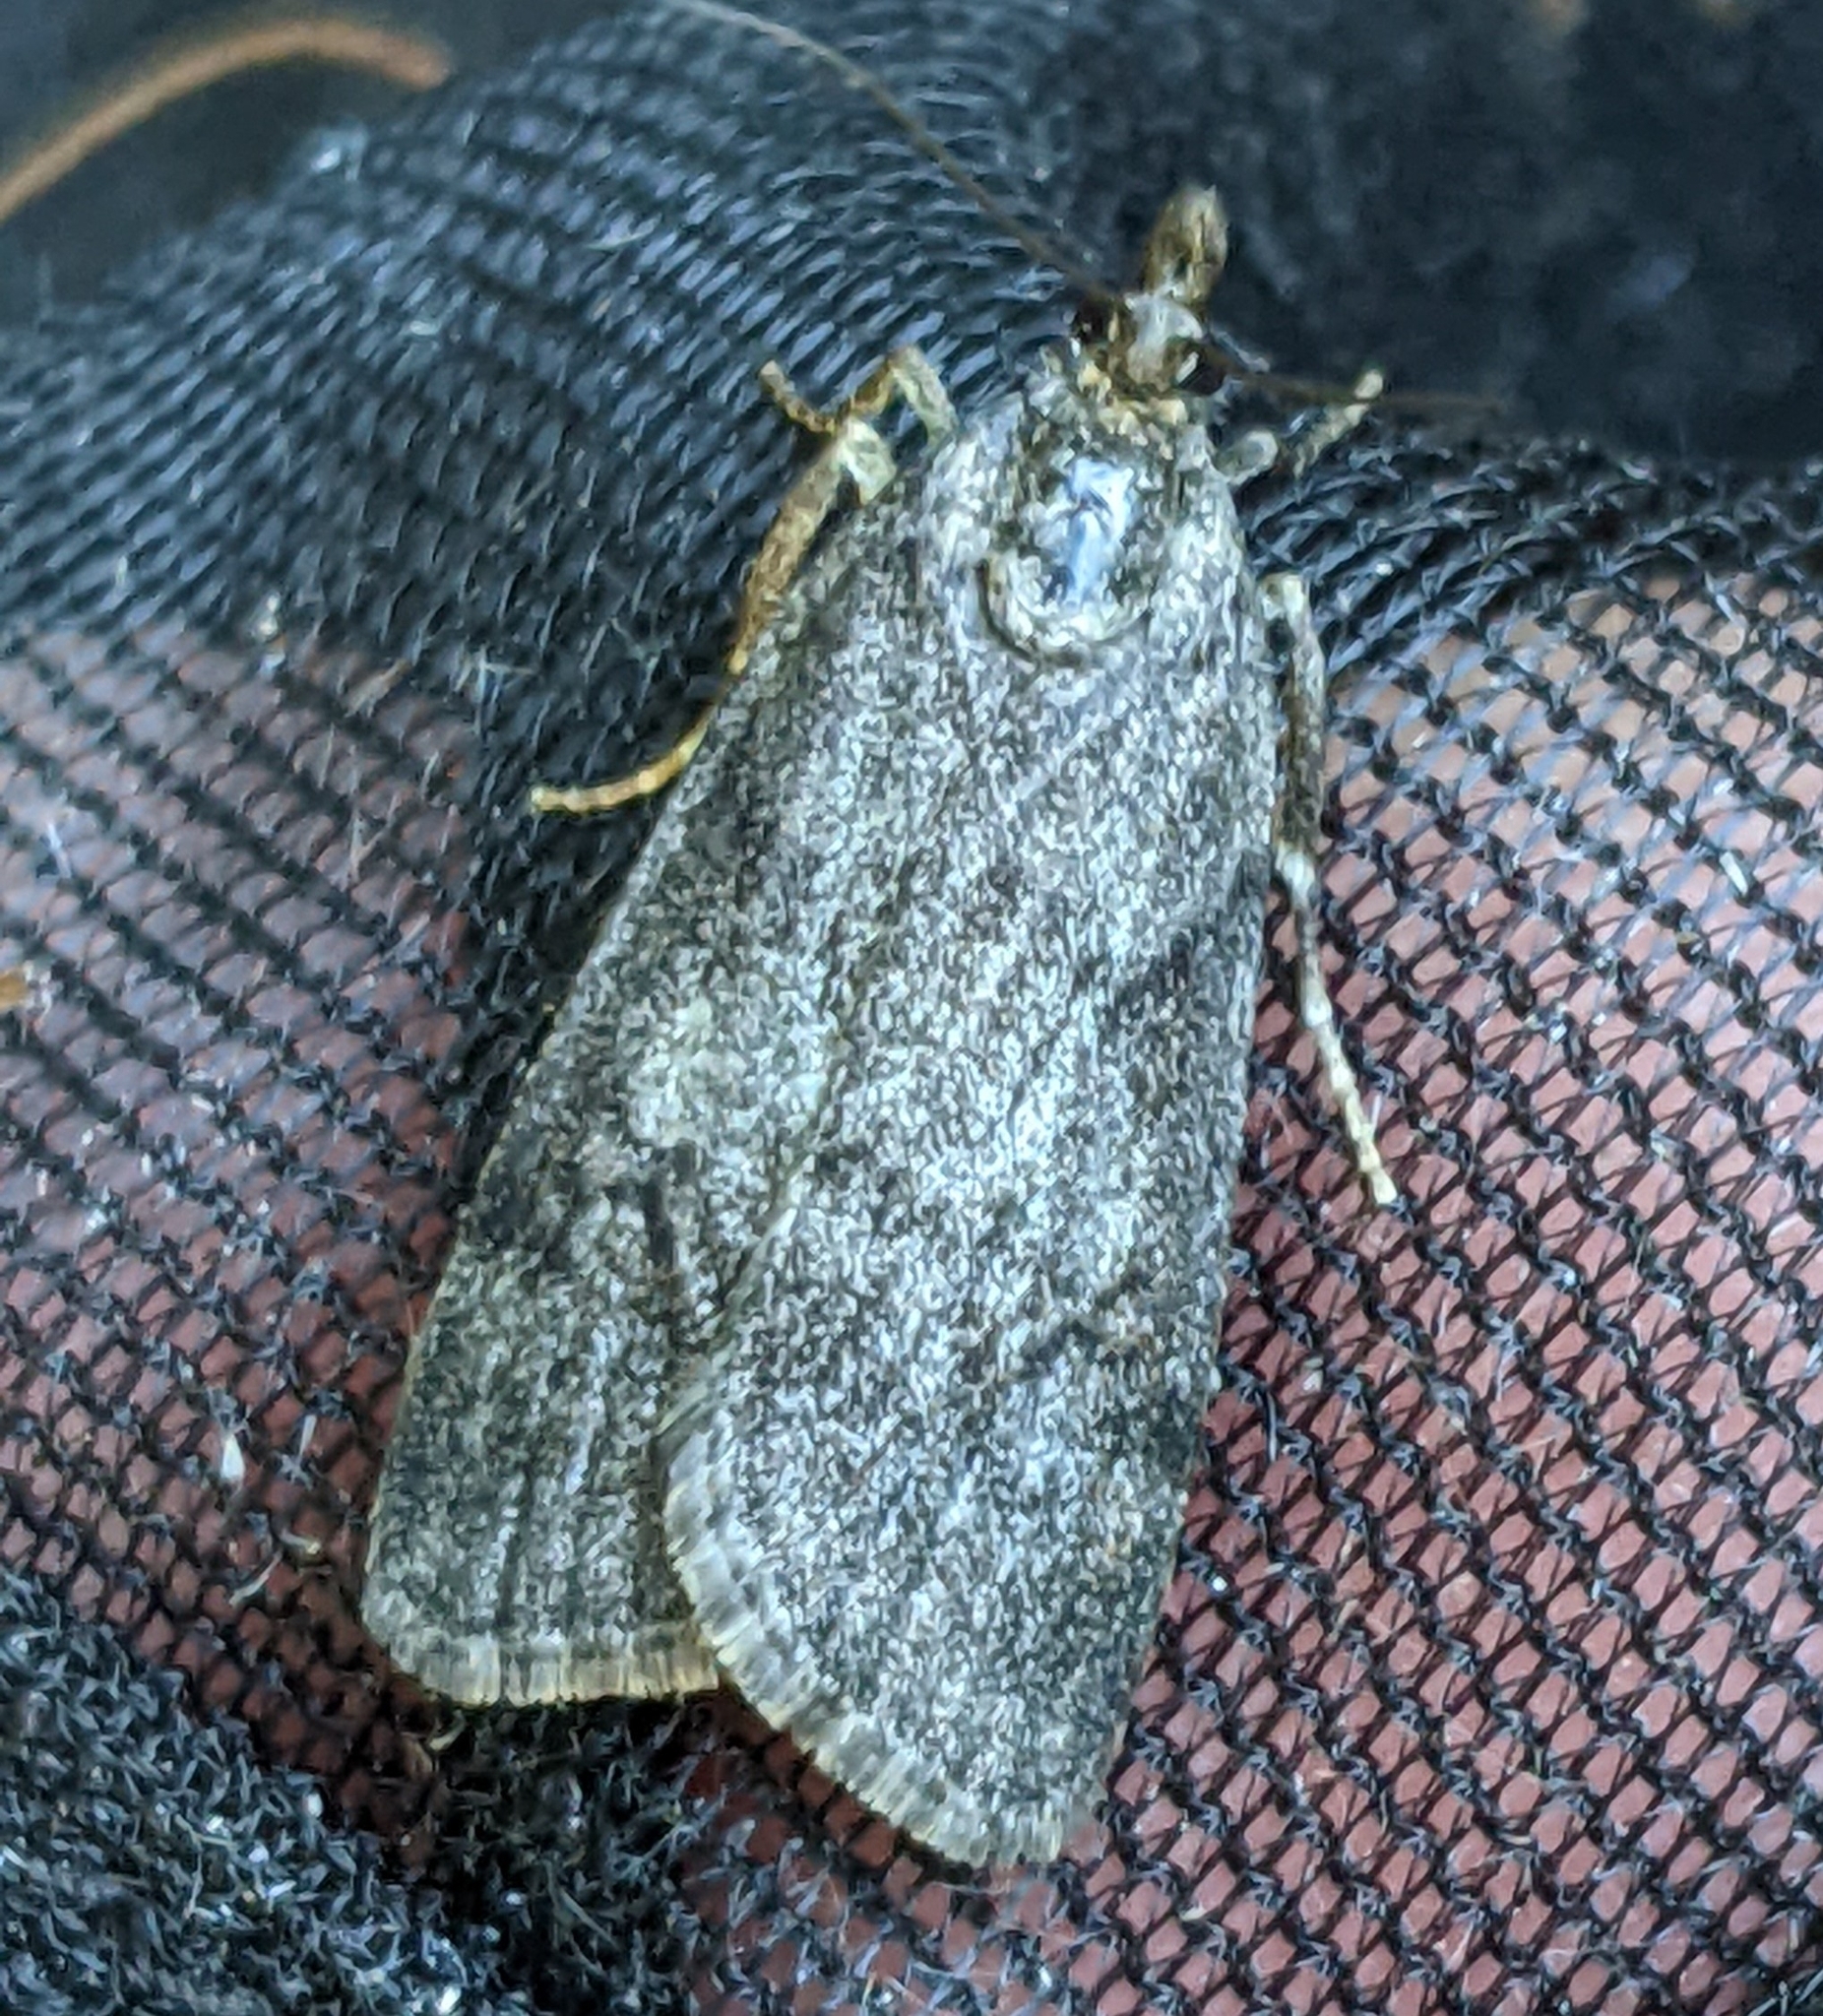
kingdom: Animalia
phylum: Arthropoda
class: Insecta
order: Lepidoptera
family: Crambidae
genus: Gesneria
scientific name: Gesneria centuriella
